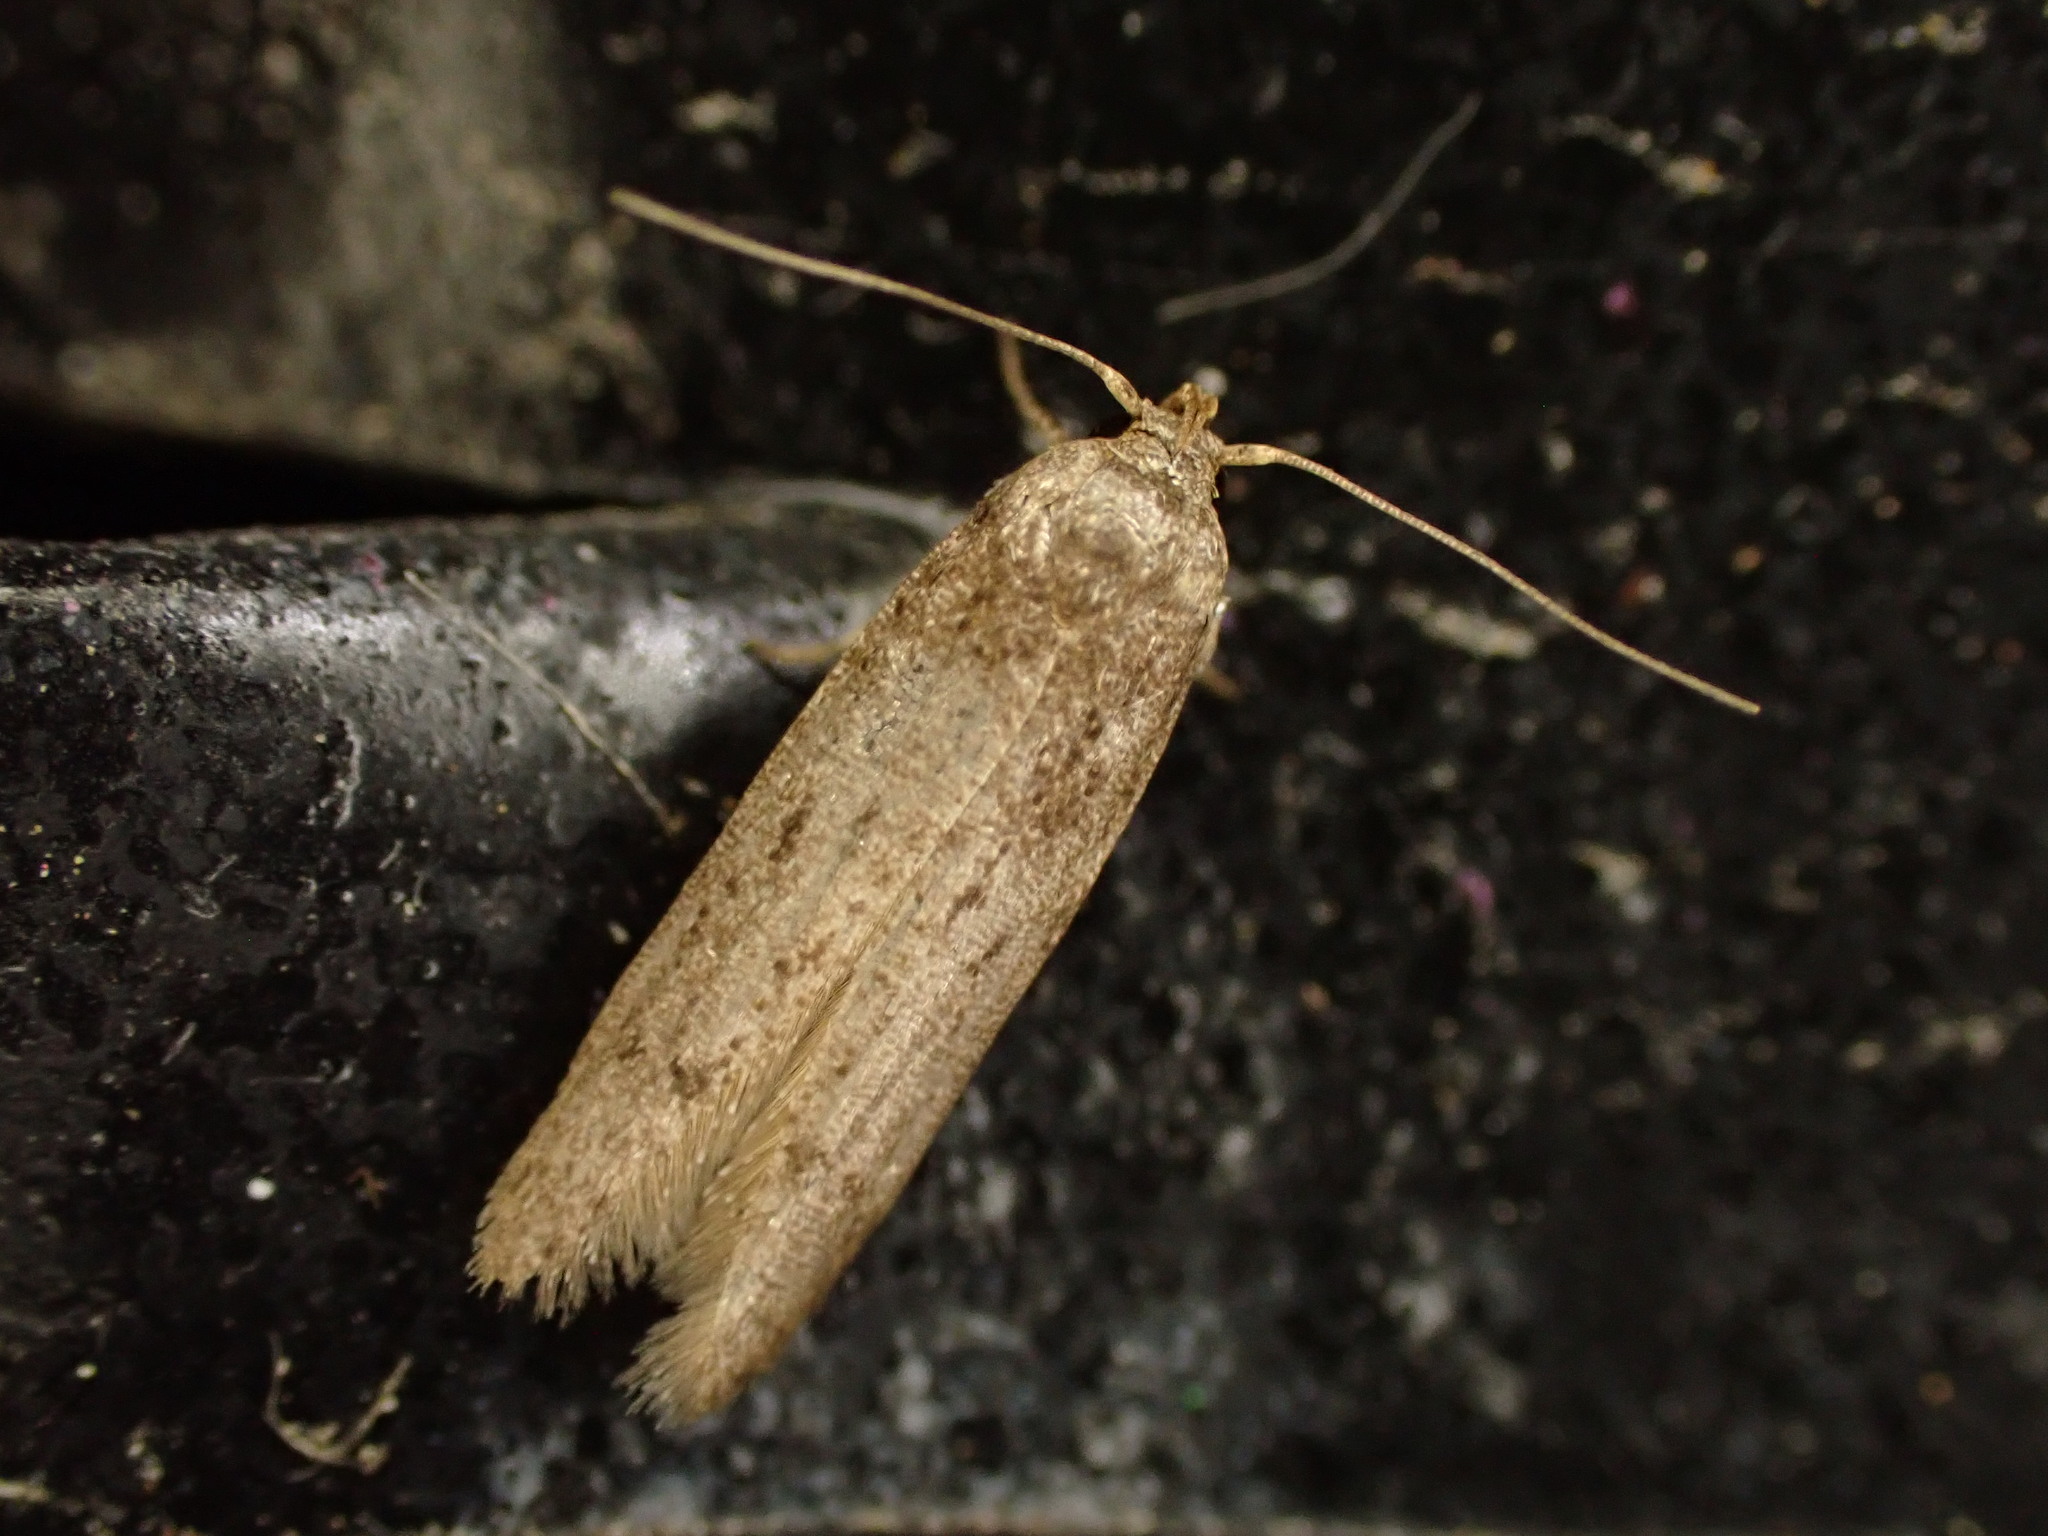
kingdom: Animalia
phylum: Arthropoda
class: Insecta
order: Lepidoptera
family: Blastobasidae
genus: Blastobasis
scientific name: Blastobasis tarda
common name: Blastobasid moth
